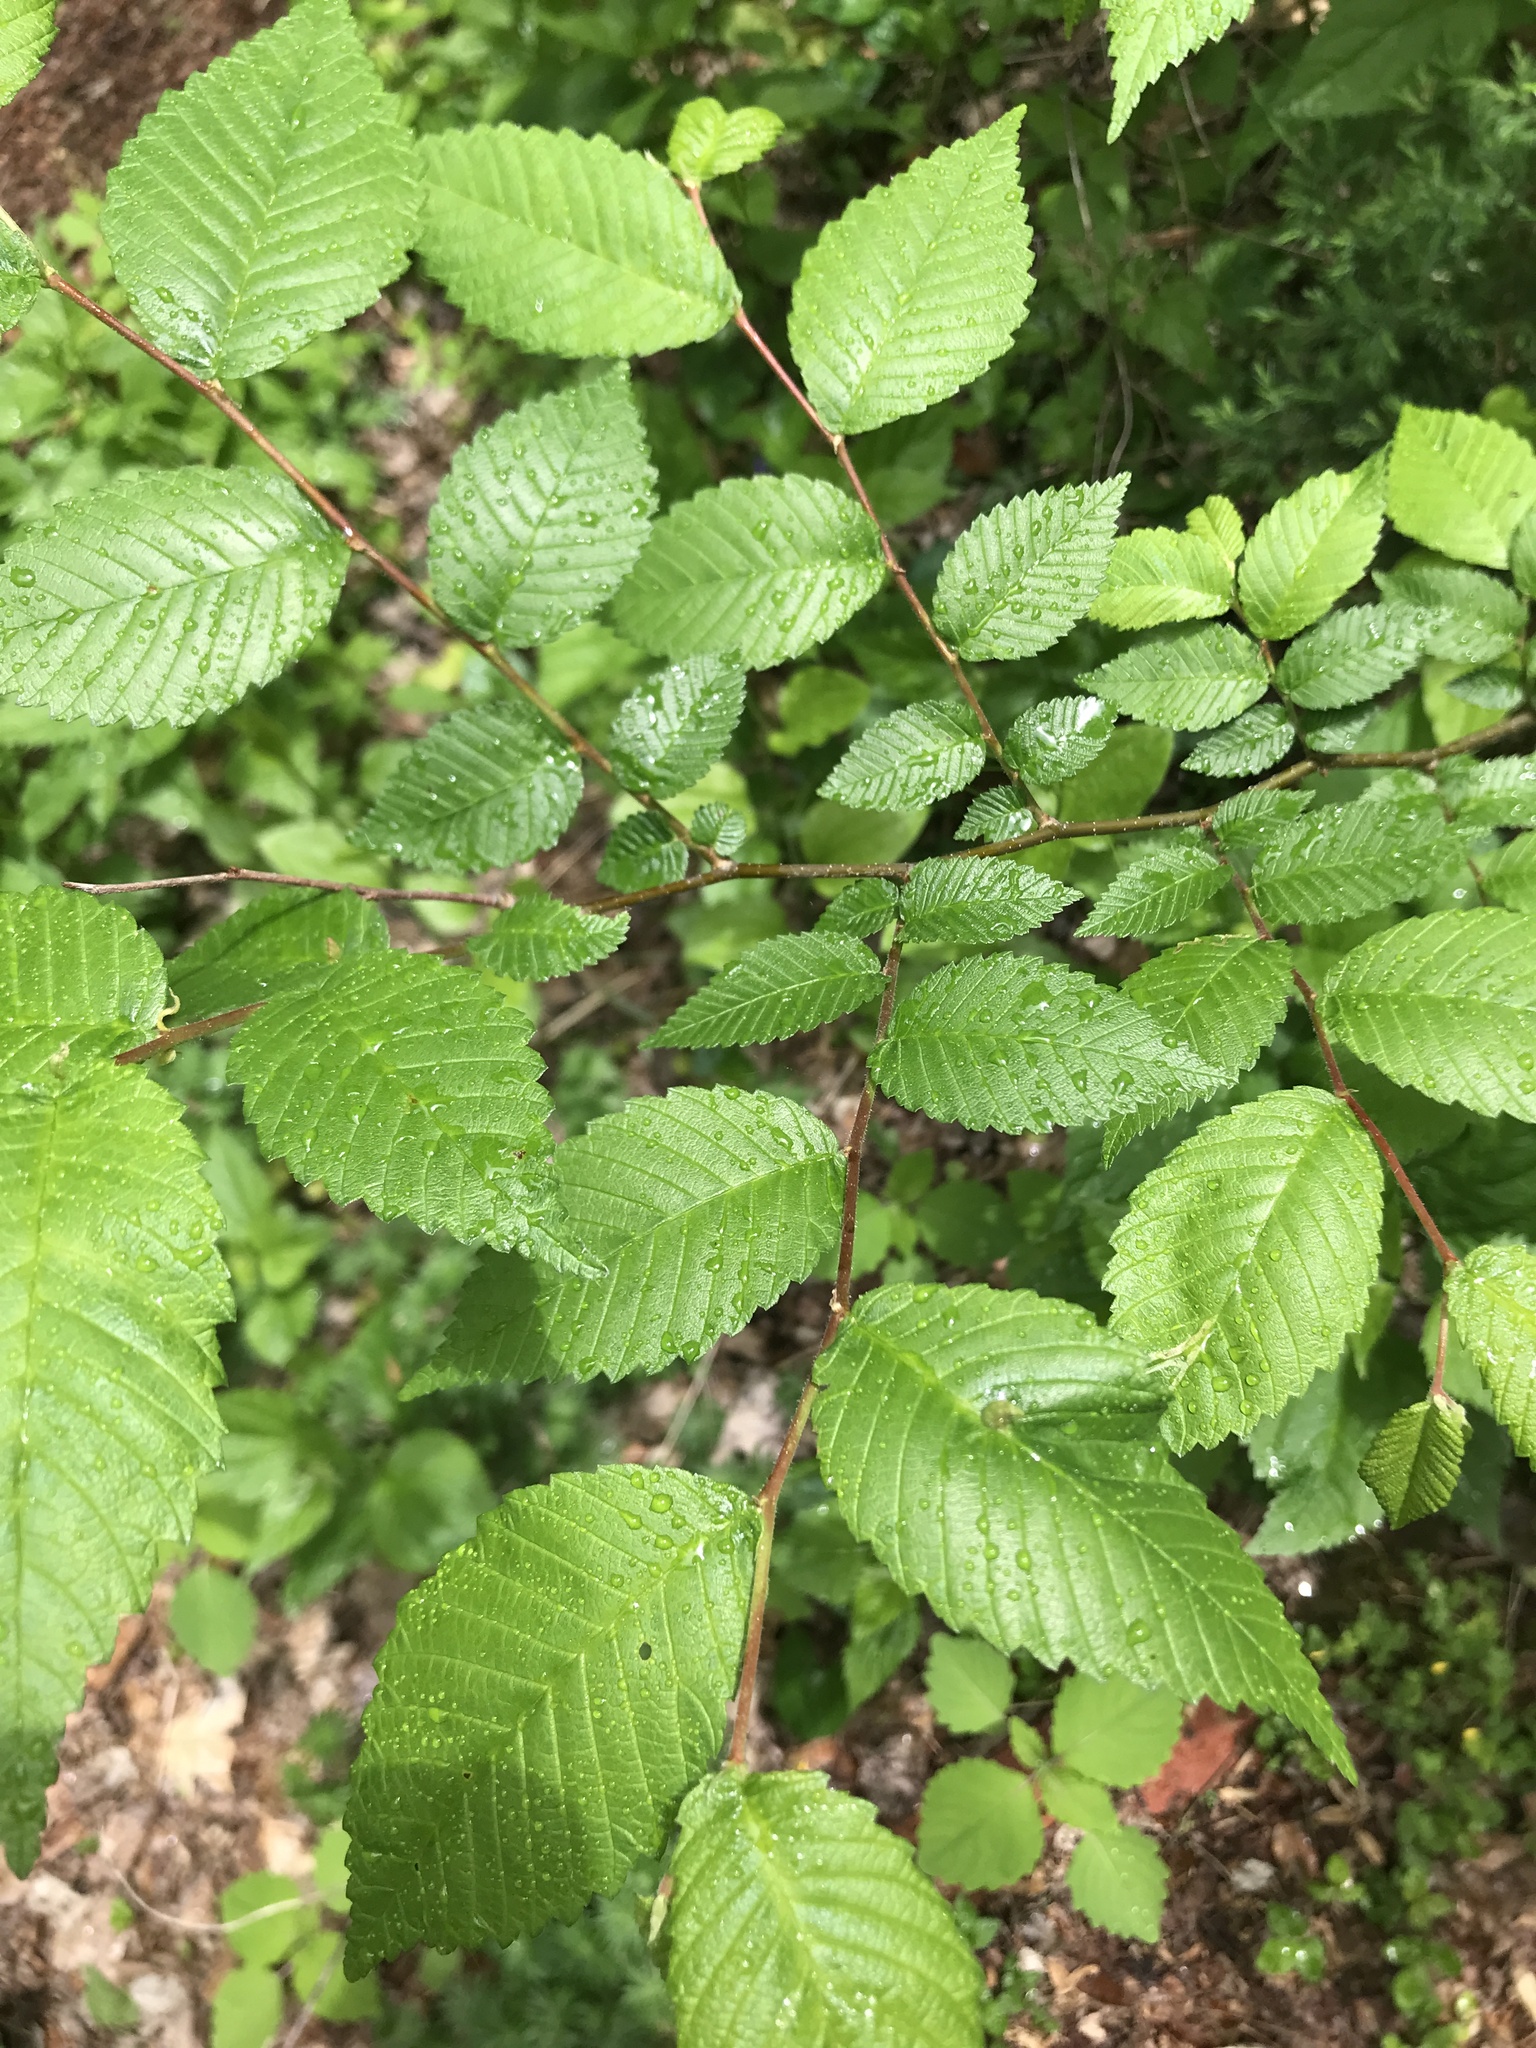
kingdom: Plantae
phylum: Tracheophyta
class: Magnoliopsida
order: Rosales
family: Ulmaceae
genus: Ulmus
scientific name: Ulmus americana
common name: American elm
